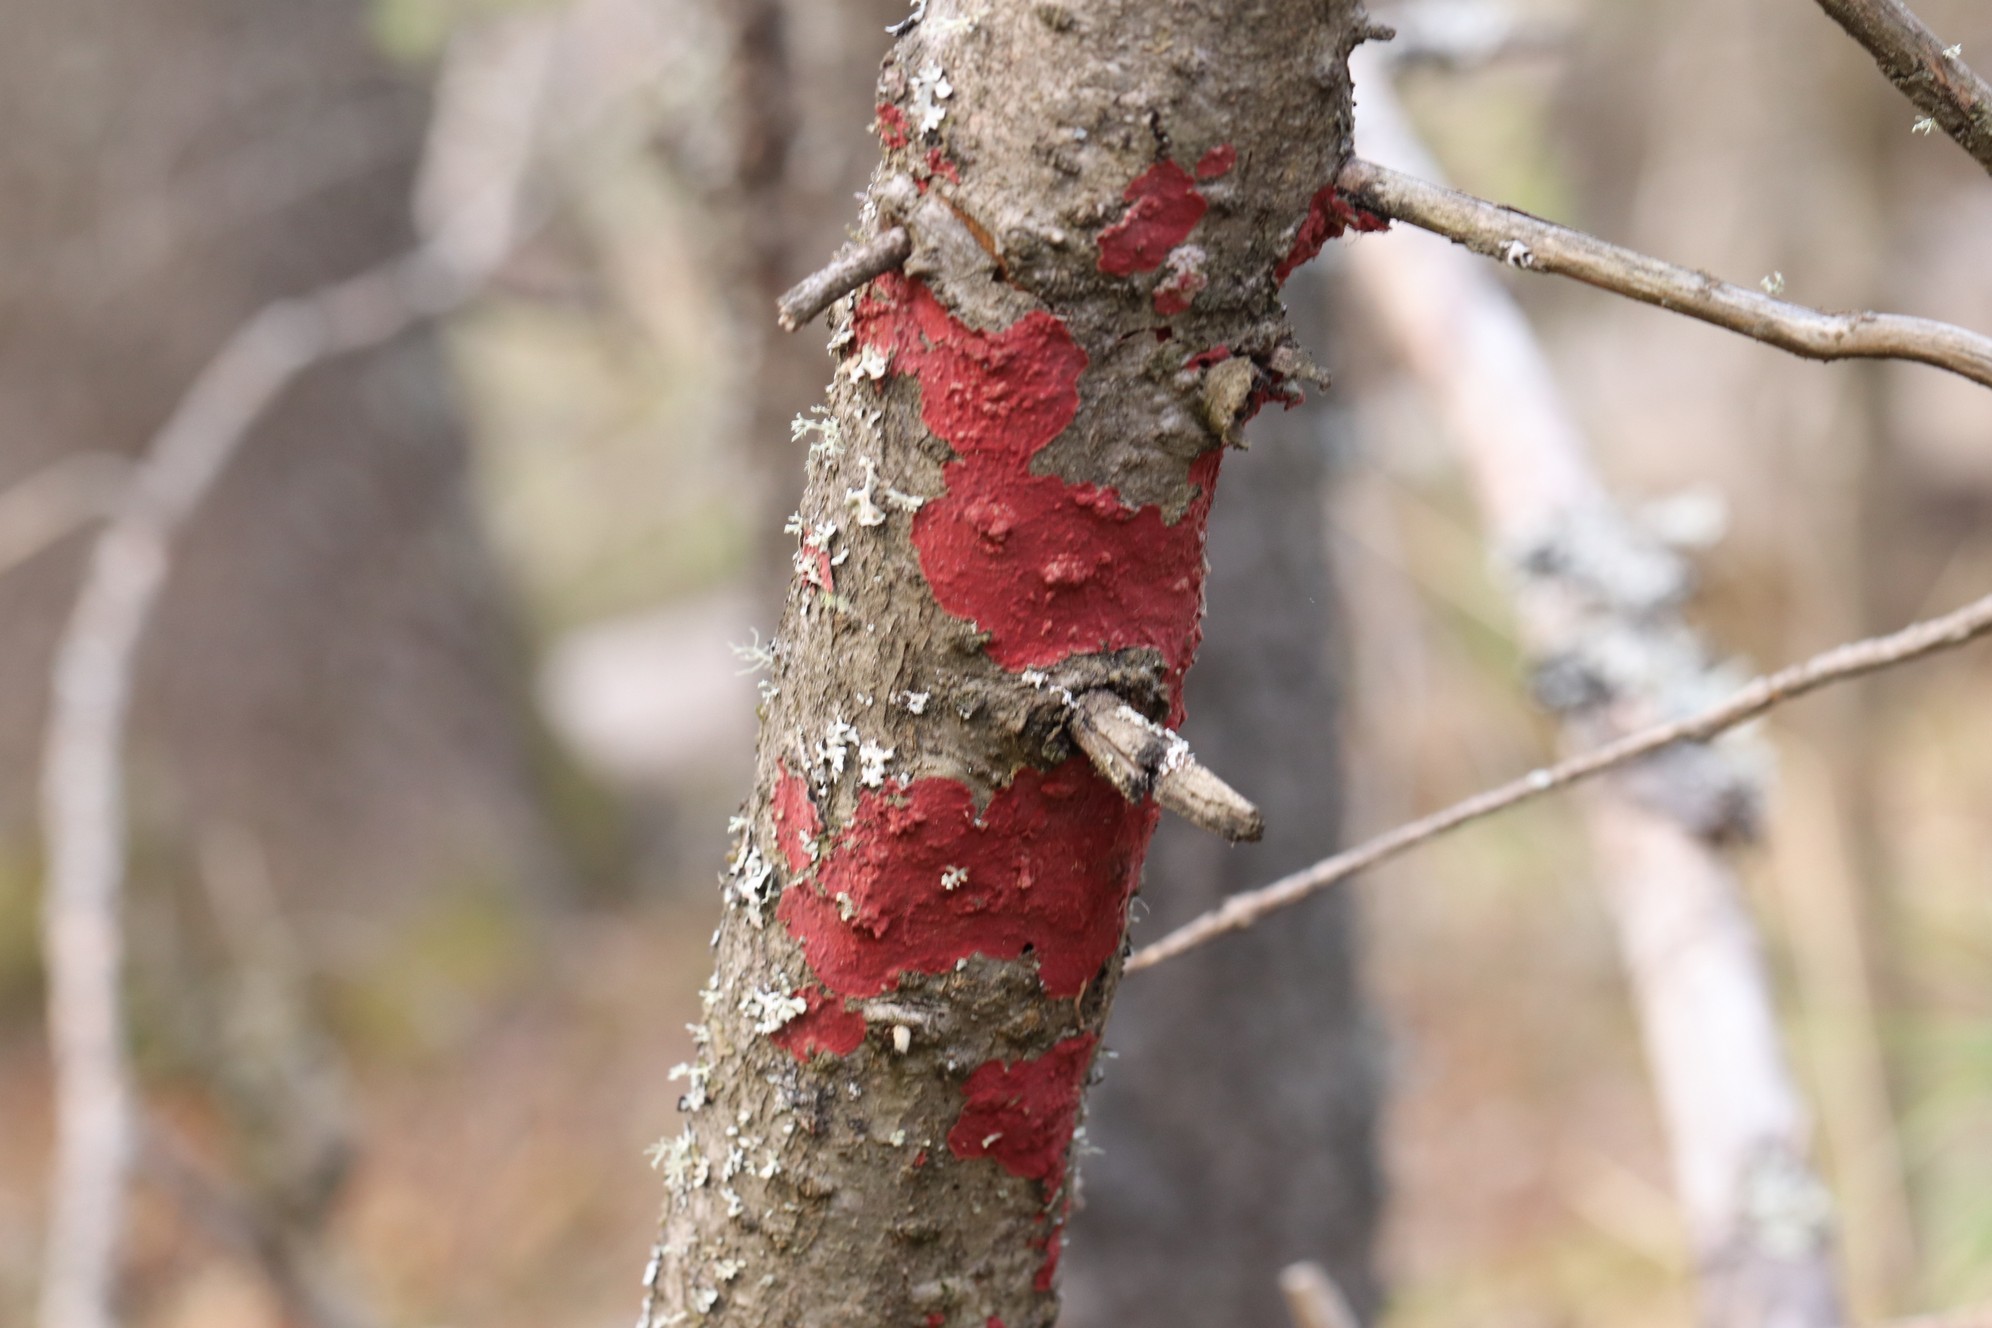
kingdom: Fungi
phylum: Basidiomycota
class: Agaricomycetes
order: Hymenochaetales
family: Hymenochaetaceae
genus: Hymenochaete
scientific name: Hymenochaete cruenta
